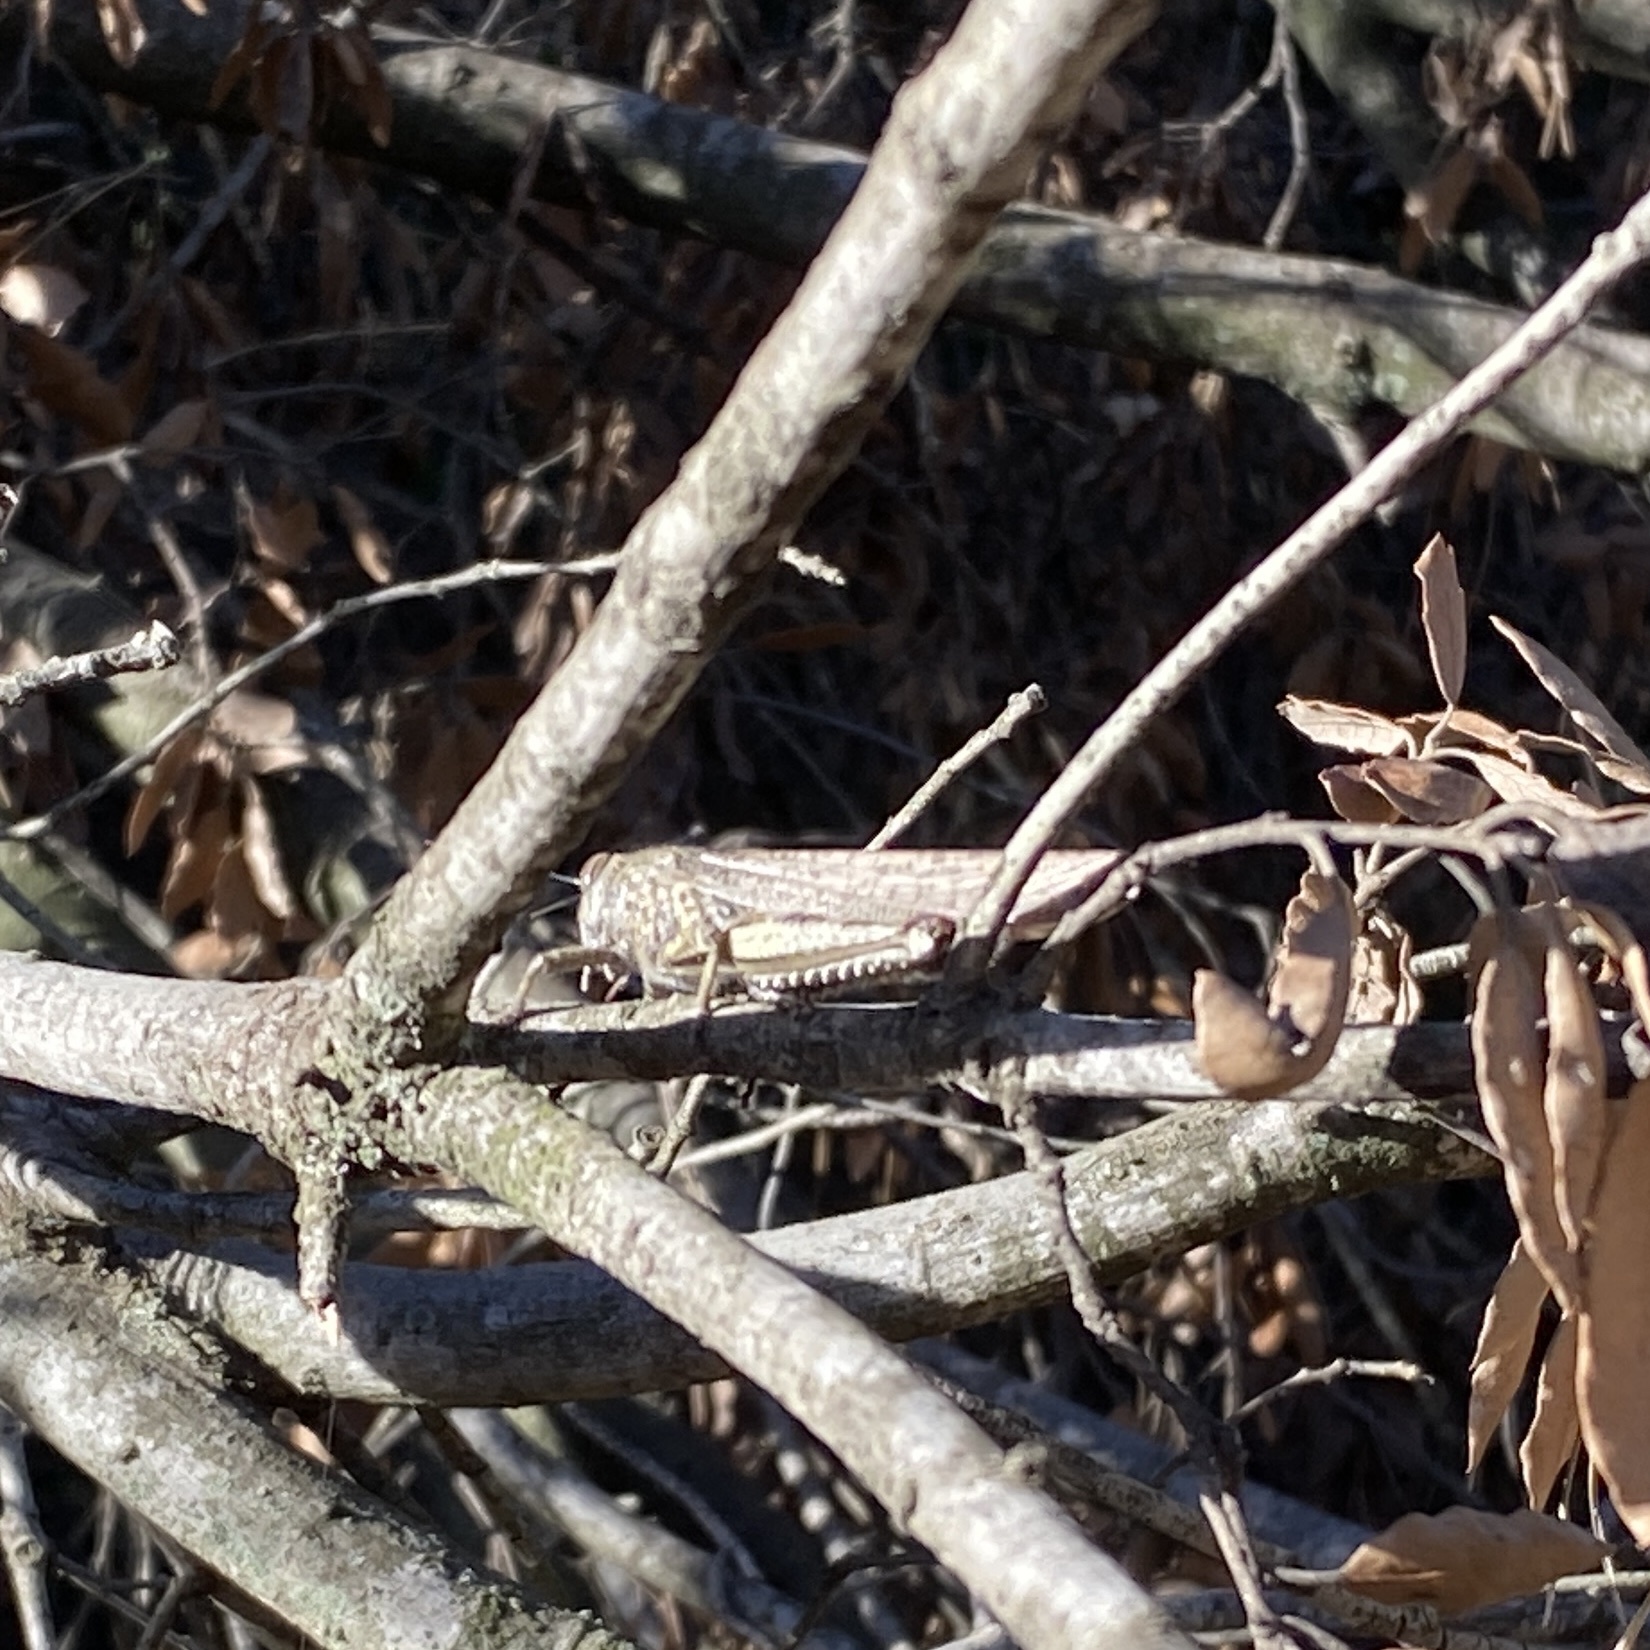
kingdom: Animalia
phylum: Arthropoda
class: Insecta
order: Orthoptera
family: Acrididae
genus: Anacridium
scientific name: Anacridium aegyptium
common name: Egyptian grasshopper
